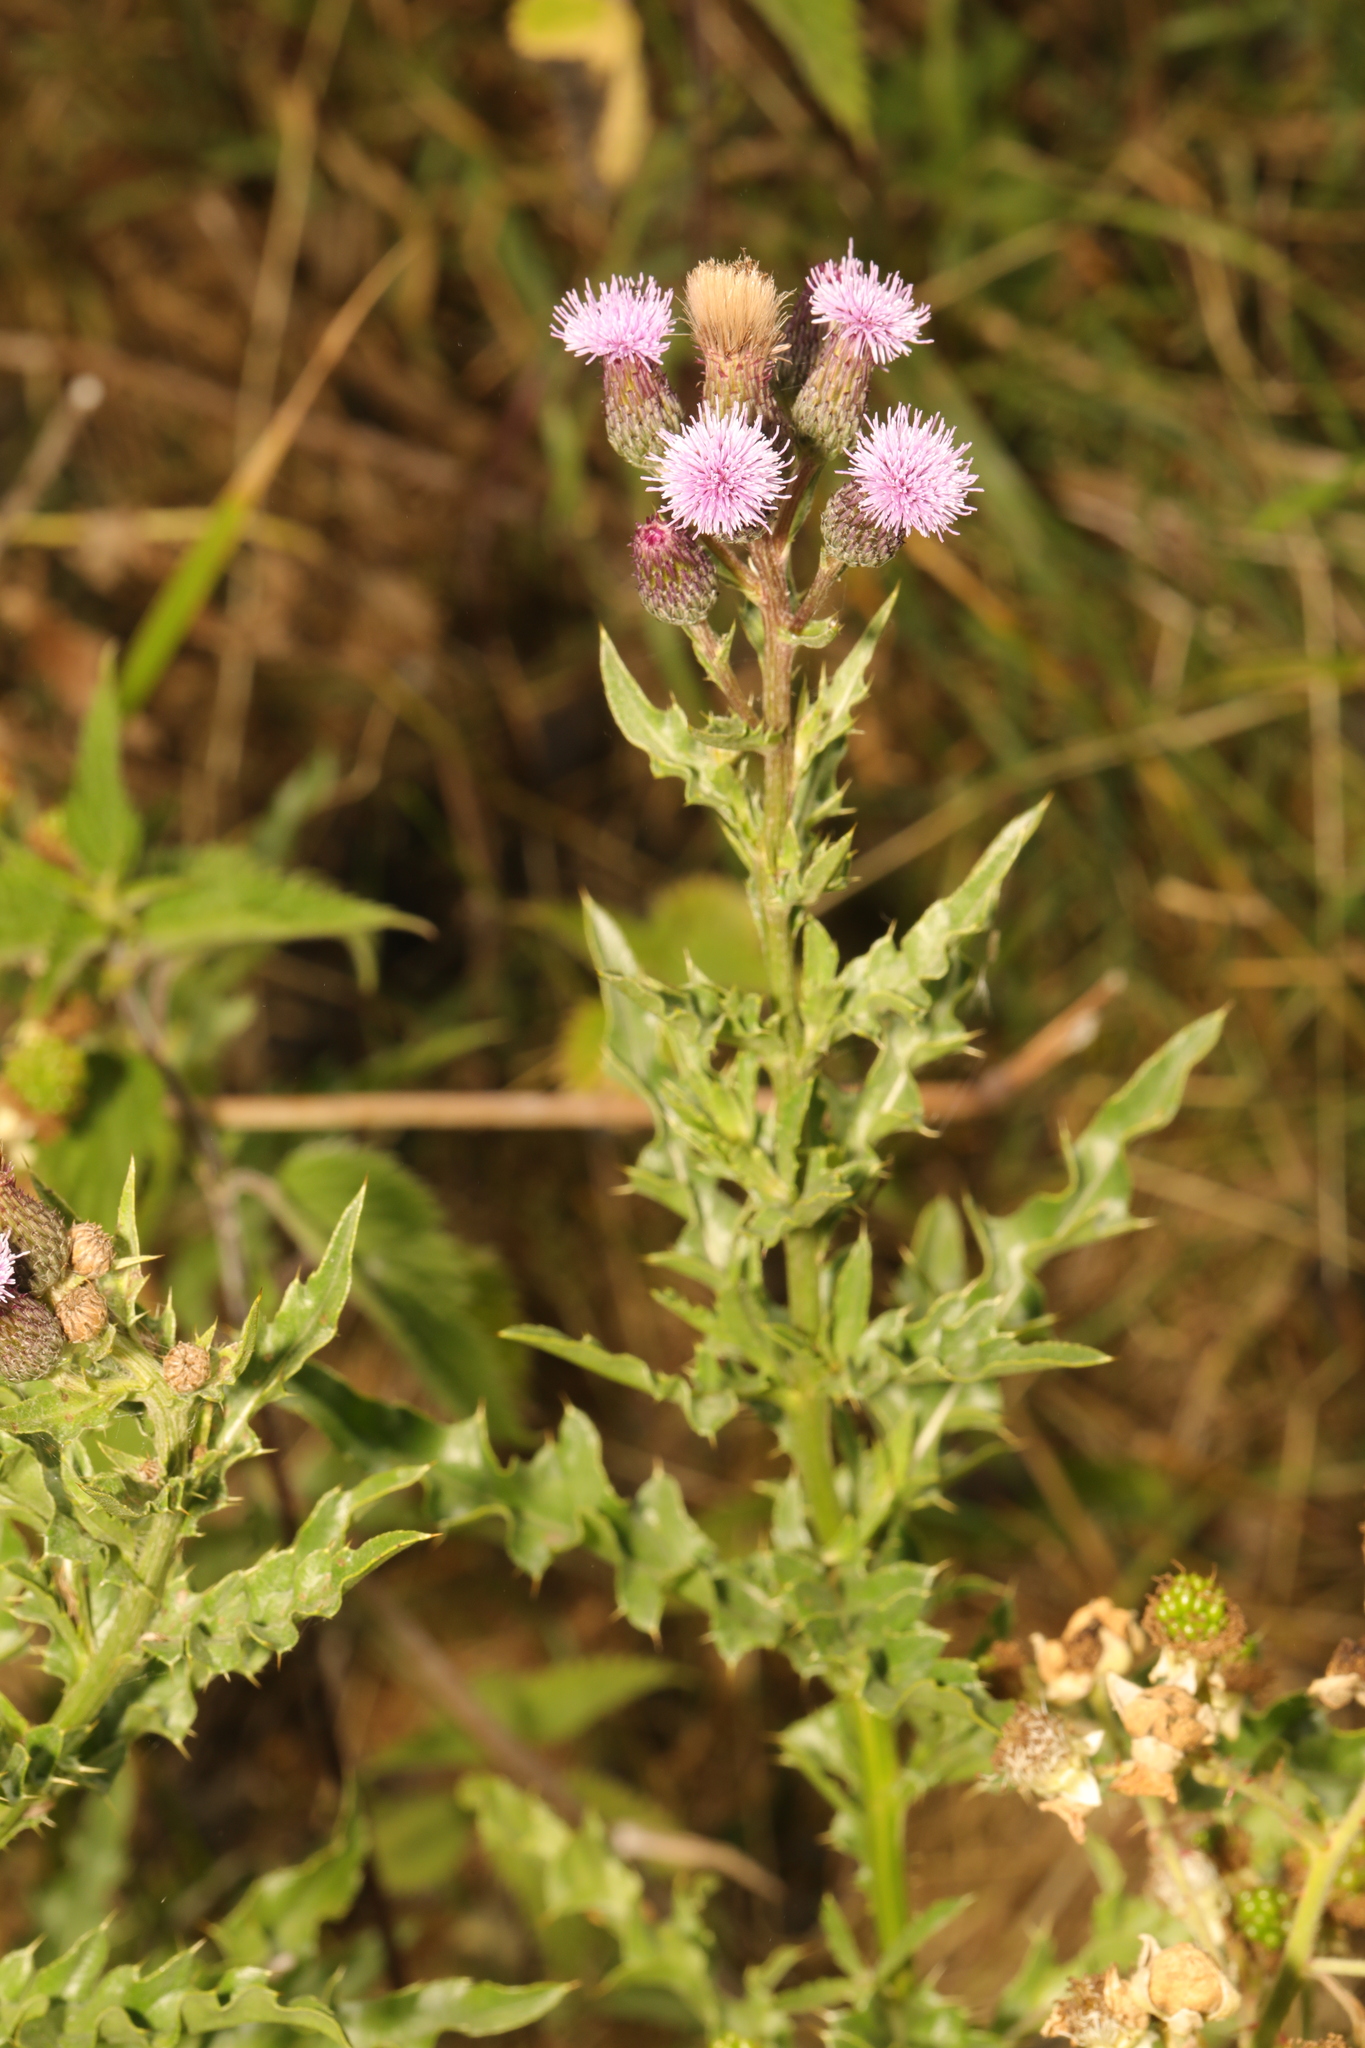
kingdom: Plantae
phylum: Tracheophyta
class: Magnoliopsida
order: Asterales
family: Asteraceae
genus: Cirsium
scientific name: Cirsium arvense
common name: Creeping thistle
